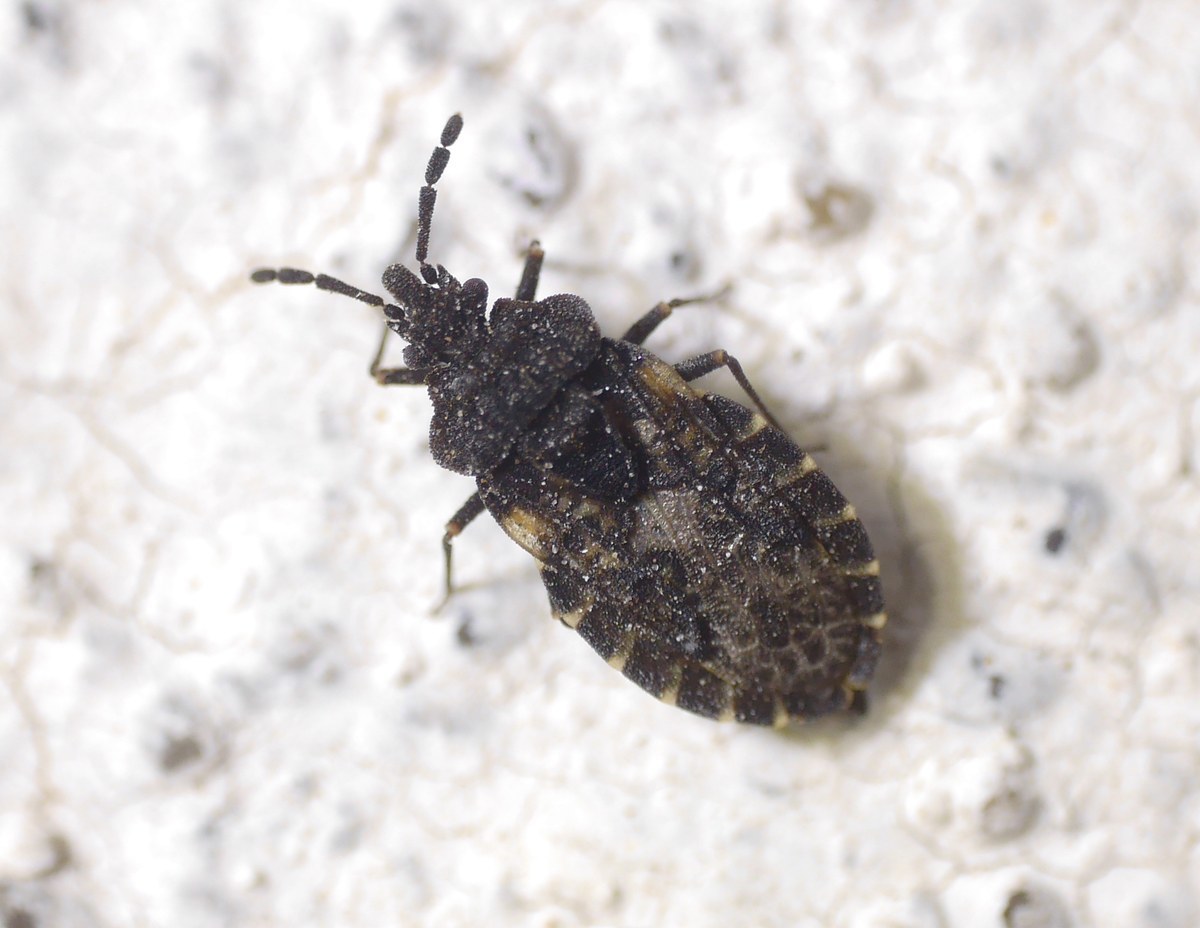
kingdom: Animalia
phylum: Arthropoda
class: Insecta
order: Hemiptera
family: Aradidae
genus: Aradus
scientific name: Aradus bimaculatus
